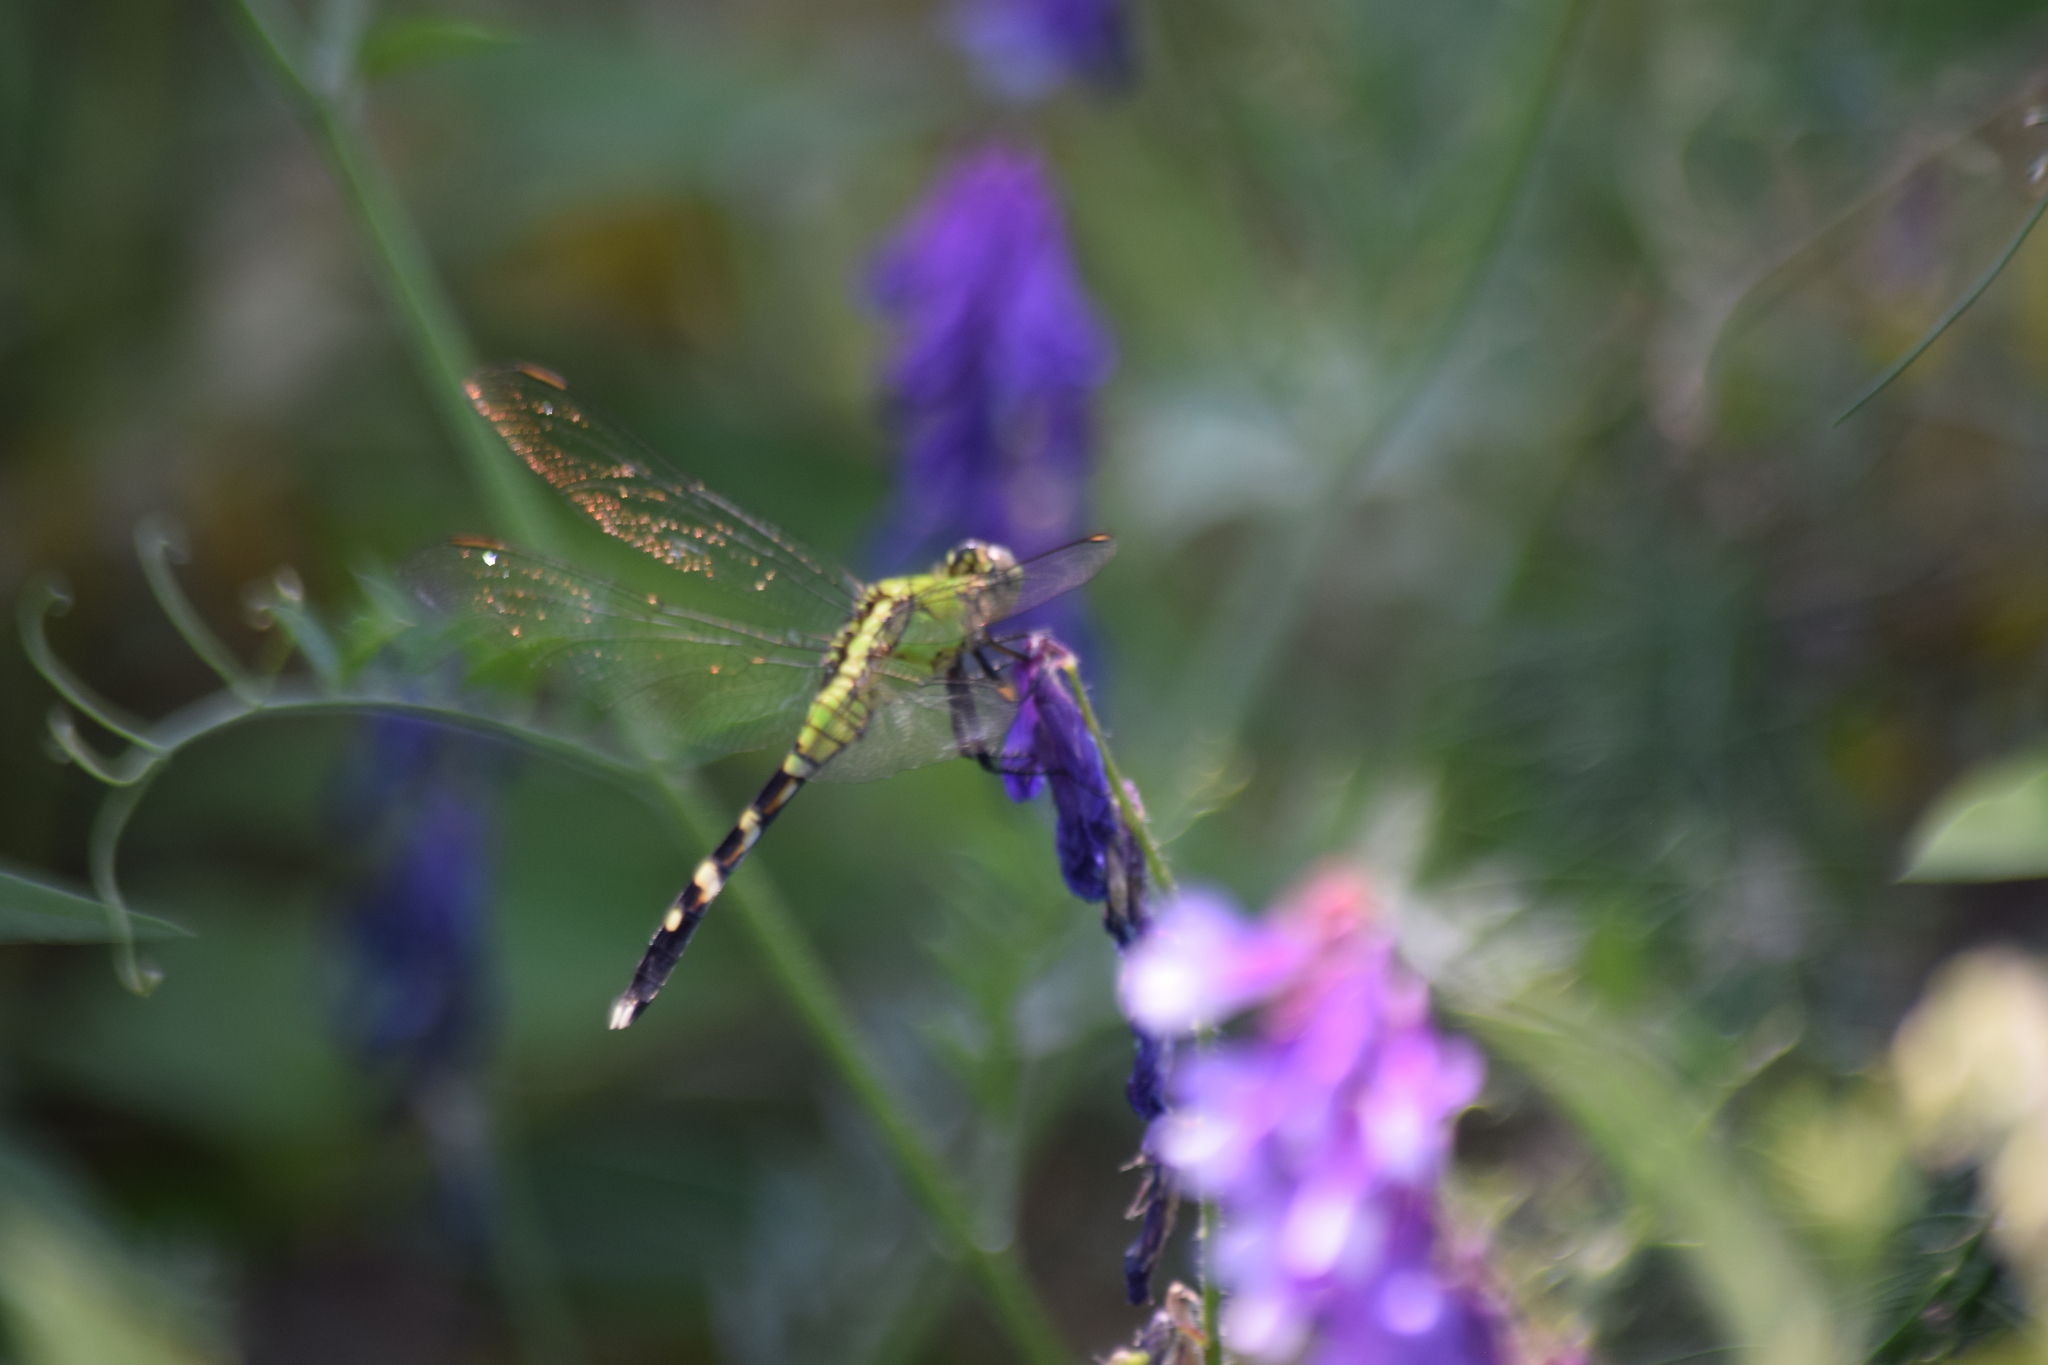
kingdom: Animalia
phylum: Arthropoda
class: Insecta
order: Odonata
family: Libellulidae
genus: Erythemis
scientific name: Erythemis simplicicollis
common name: Eastern pondhawk
